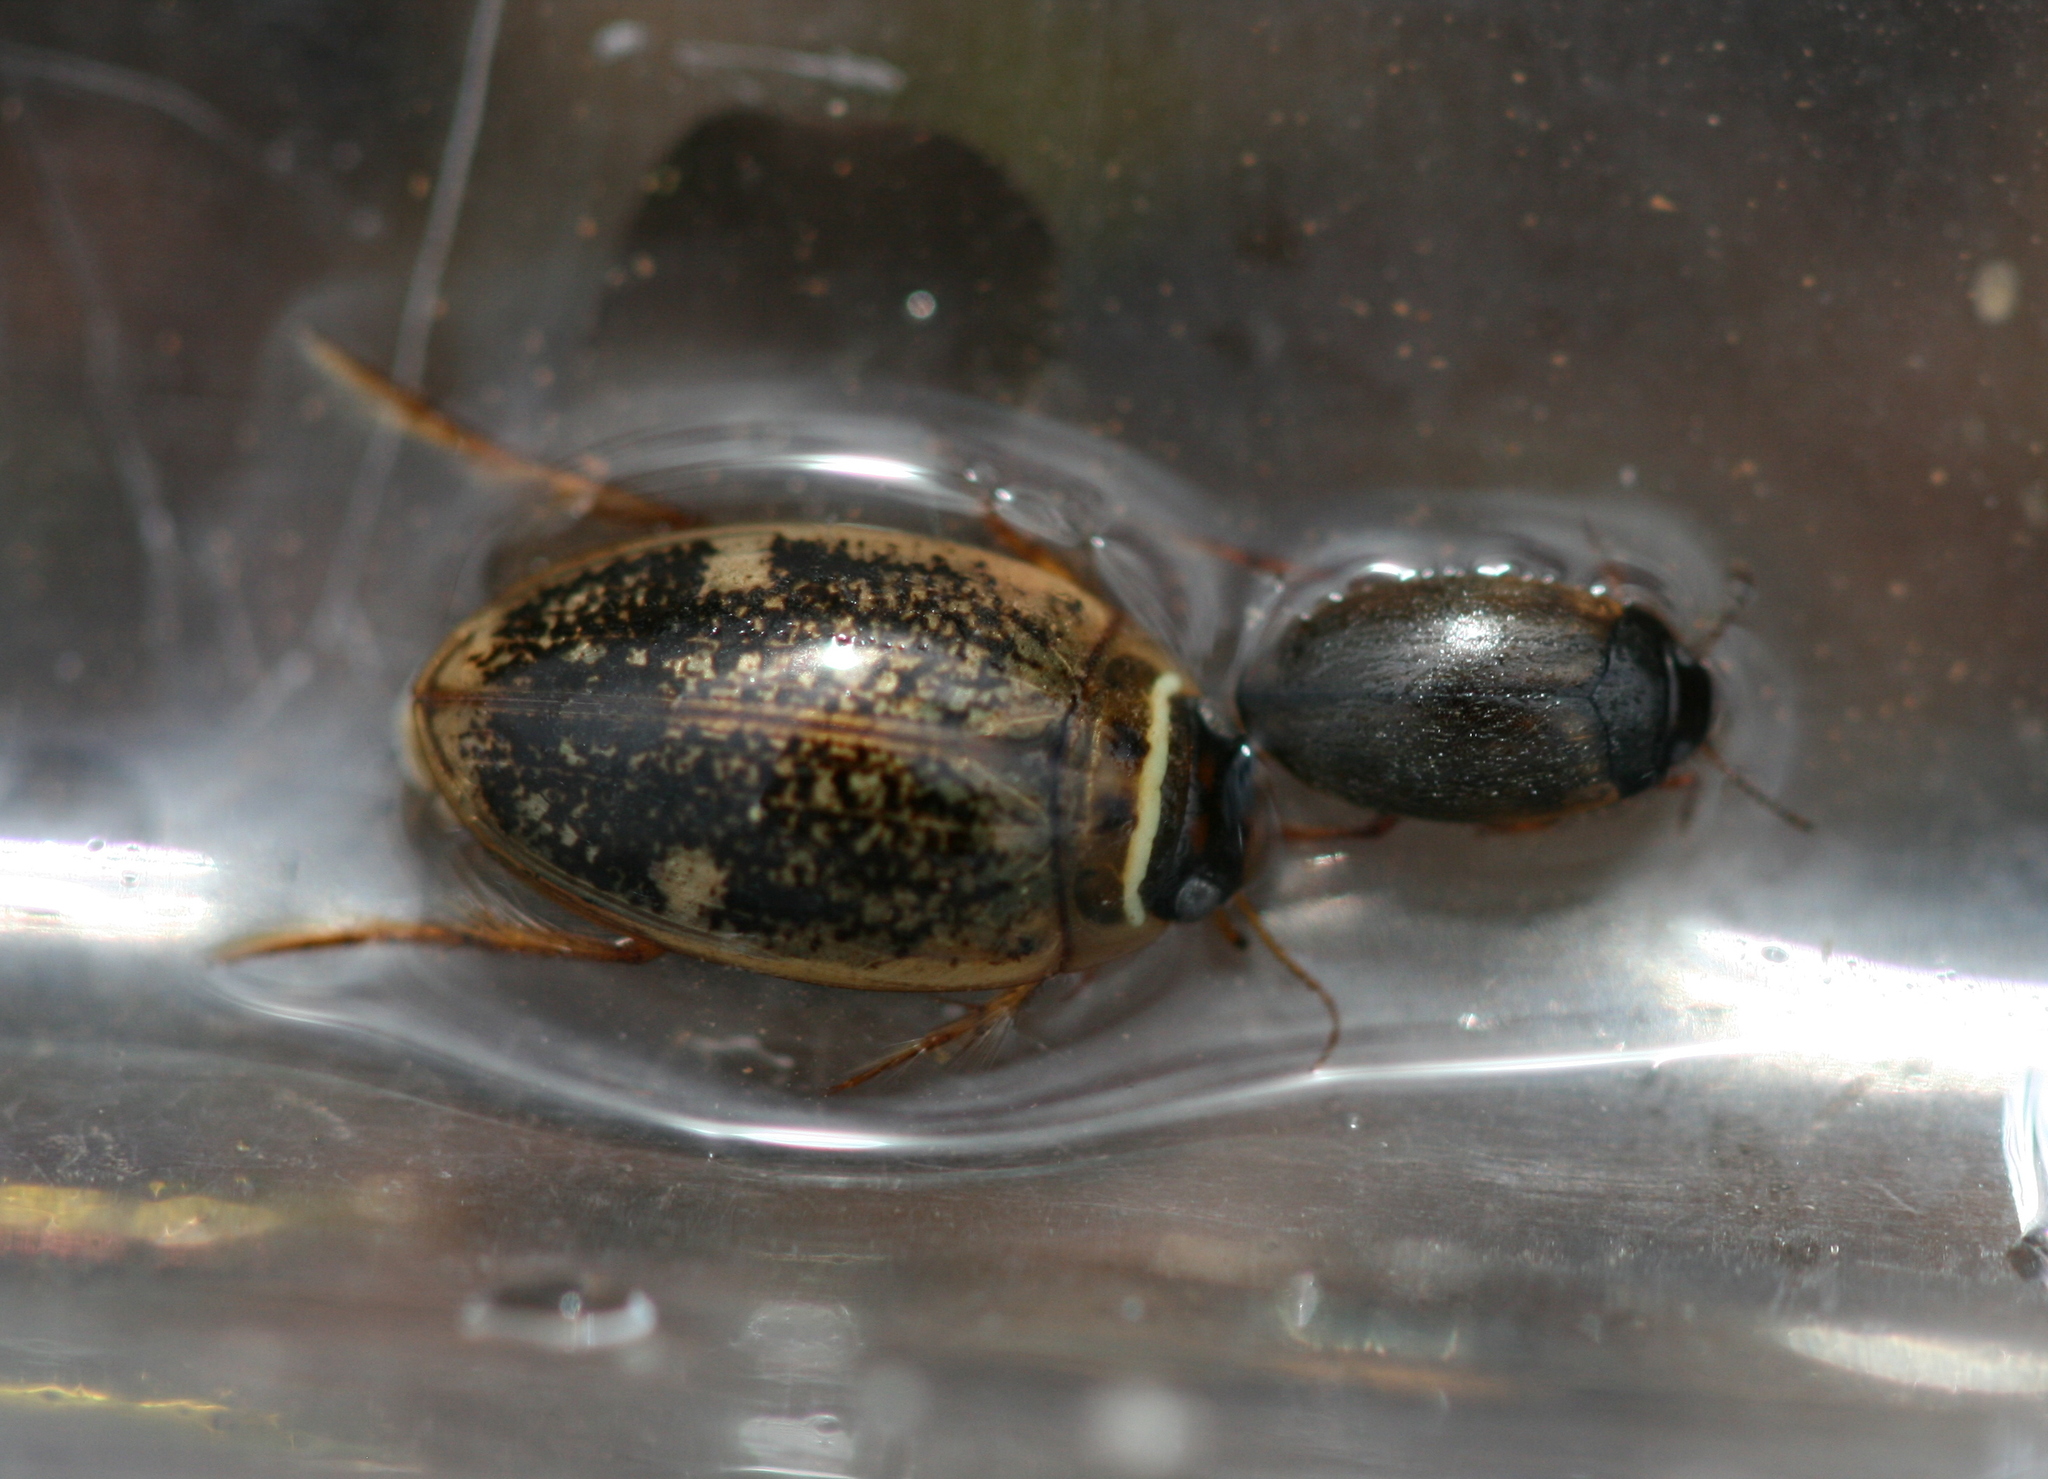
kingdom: Animalia
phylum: Arthropoda
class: Insecta
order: Coleoptera
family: Dytiscidae
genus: Agabus
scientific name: Agabus nebulosus
